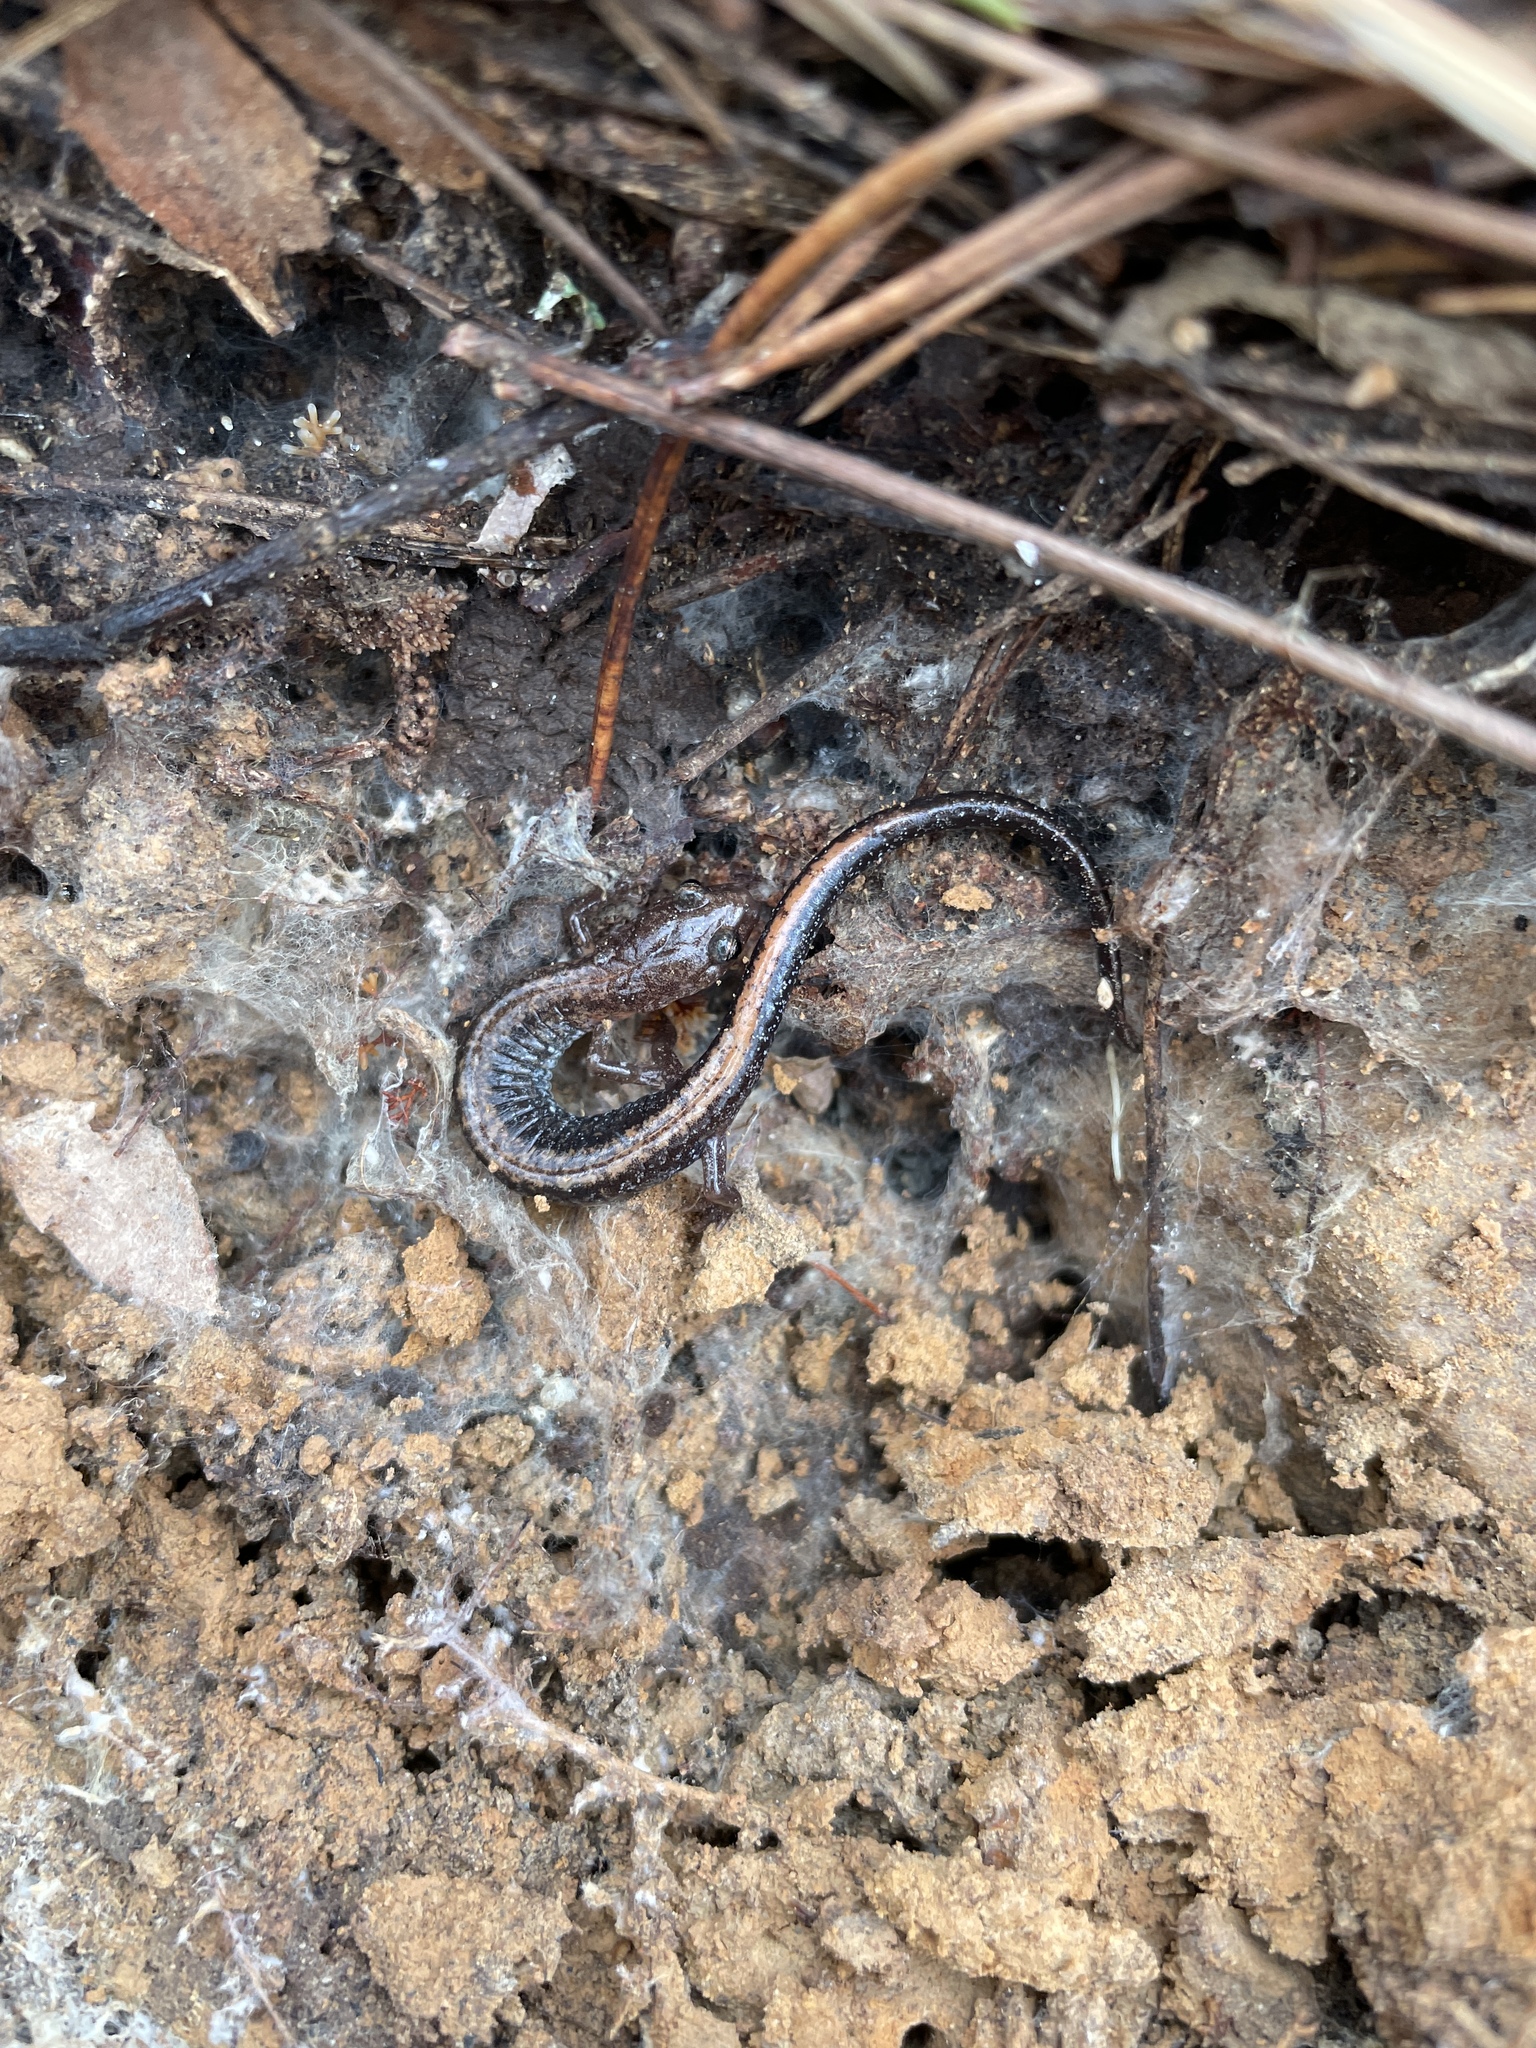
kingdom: Animalia
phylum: Chordata
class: Amphibia
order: Caudata
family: Plethodontidae
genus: Plethodon
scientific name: Plethodon serratus
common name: Southern red-backed salamander
